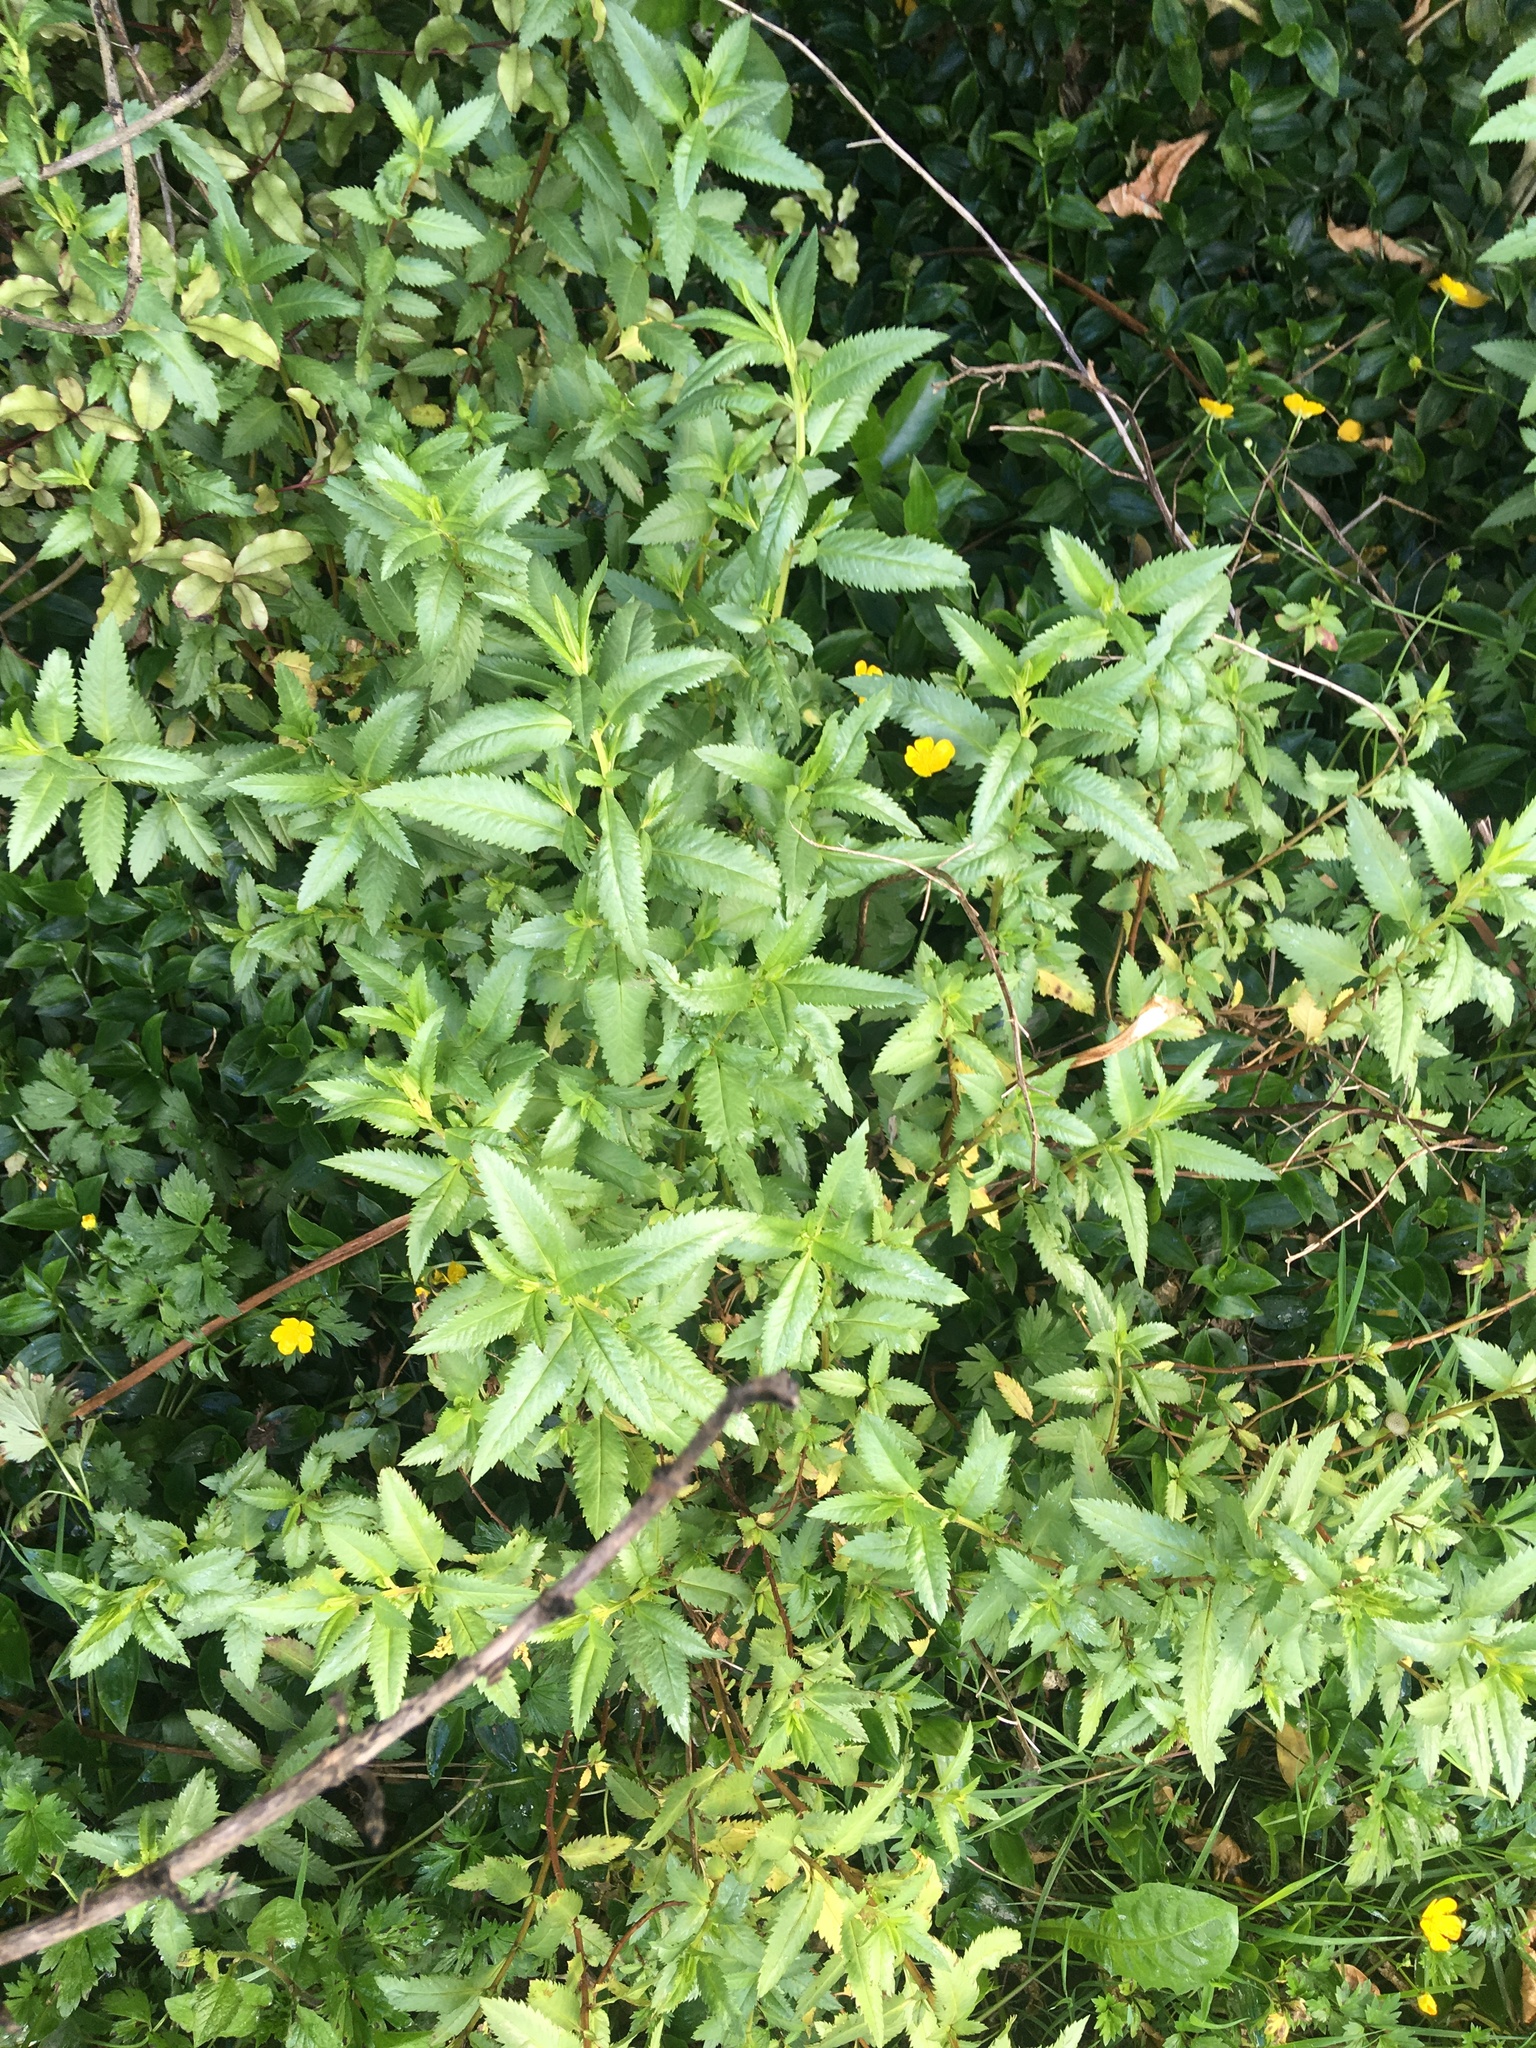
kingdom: Plantae
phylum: Tracheophyta
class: Magnoliopsida
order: Saxifragales
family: Haloragaceae
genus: Haloragis
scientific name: Haloragis erecta
